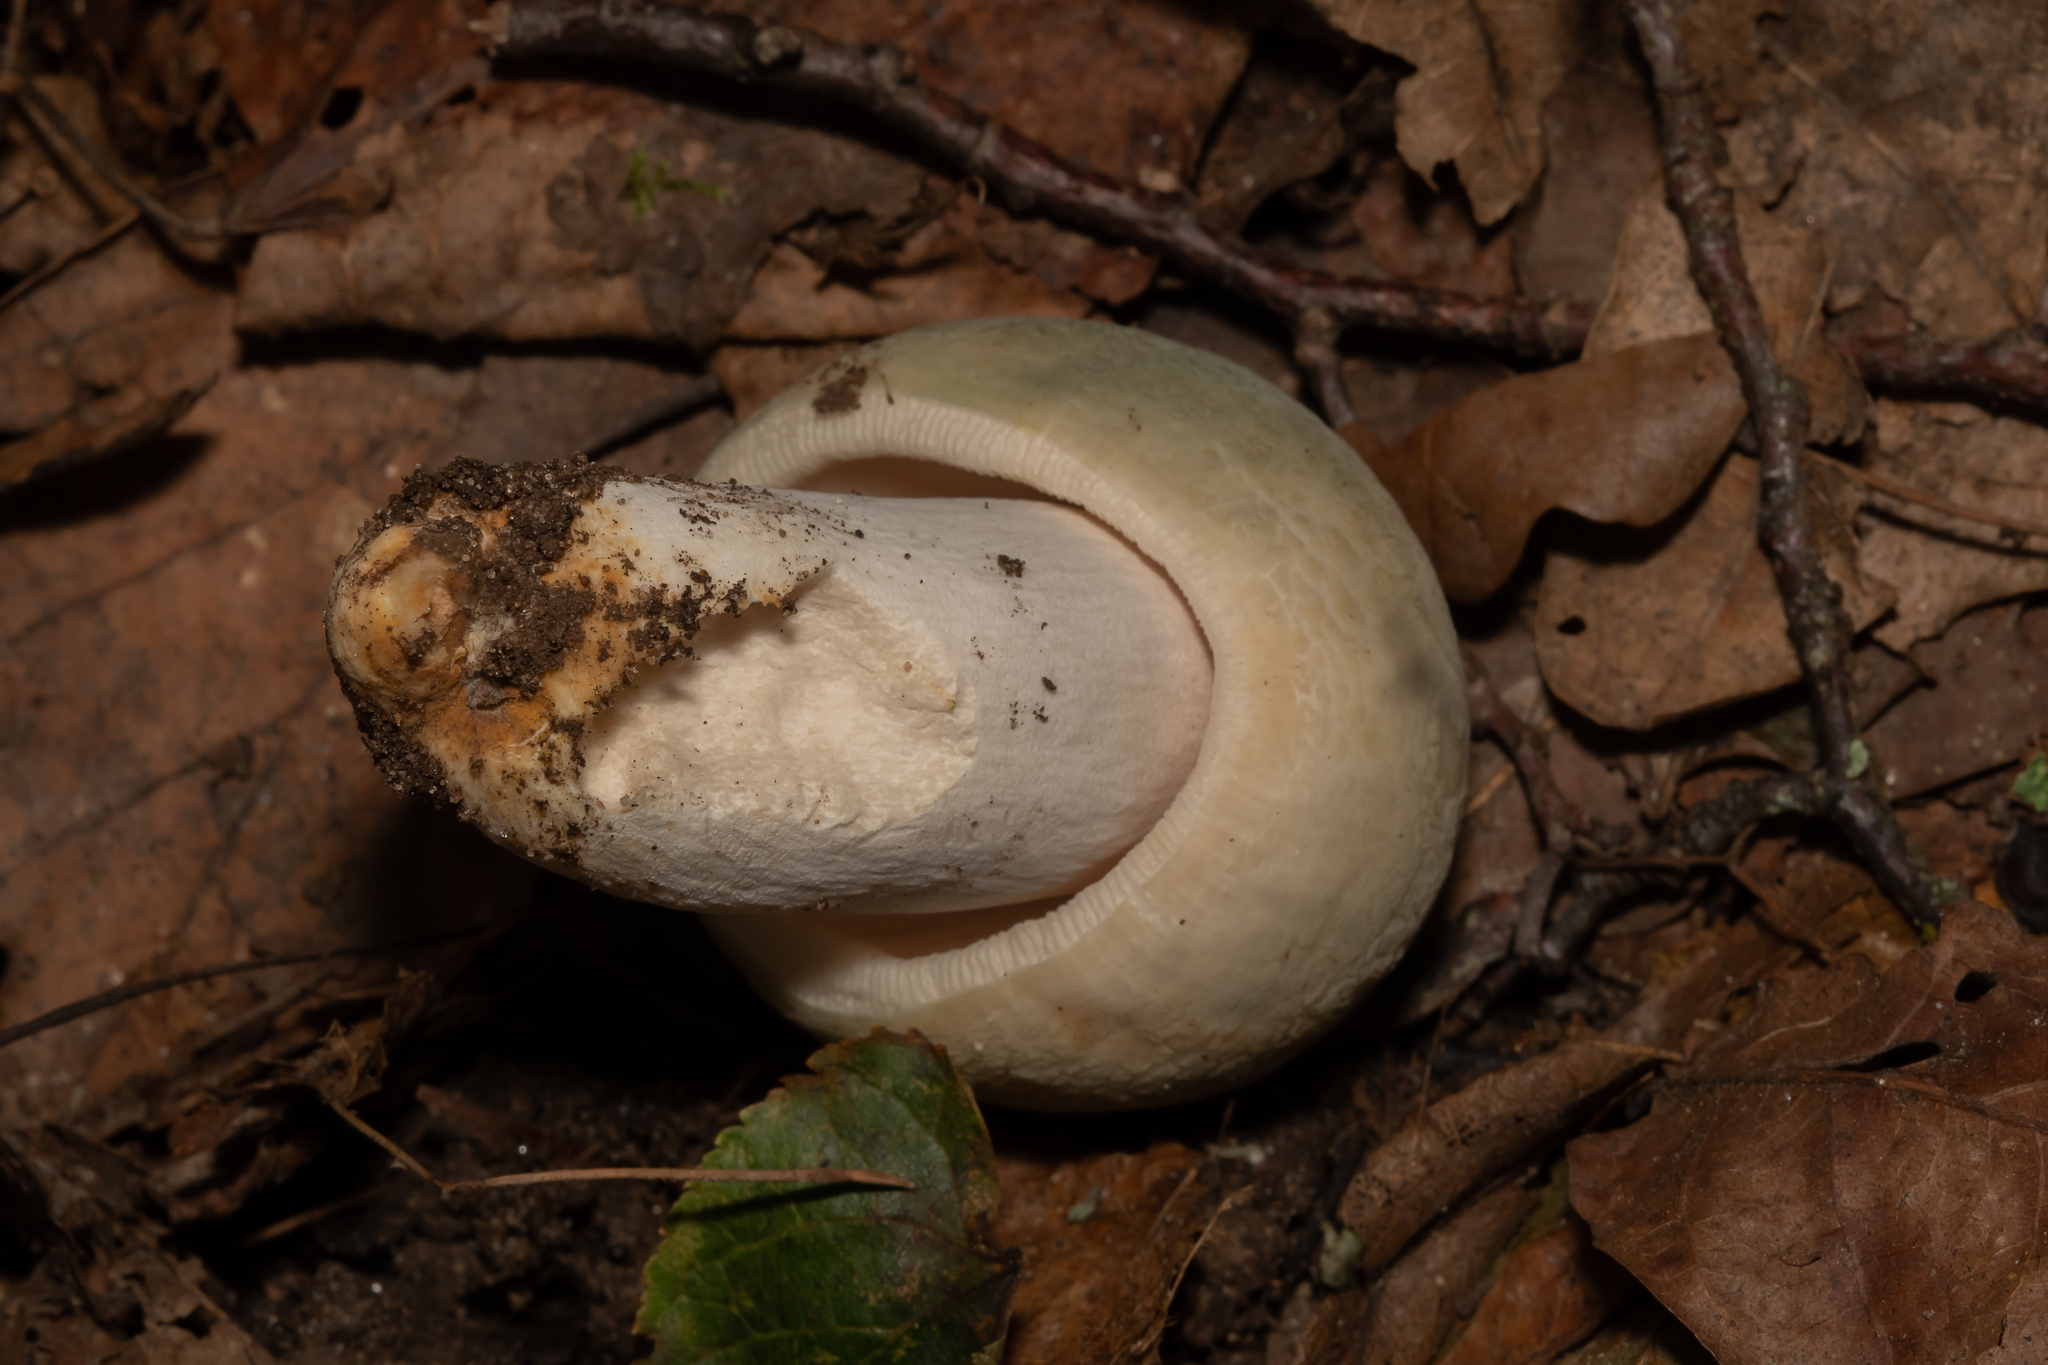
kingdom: Fungi
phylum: Basidiomycota
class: Agaricomycetes
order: Russulales
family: Russulaceae
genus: Russula
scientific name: Russula virescens
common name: Greencracked brittlegill
